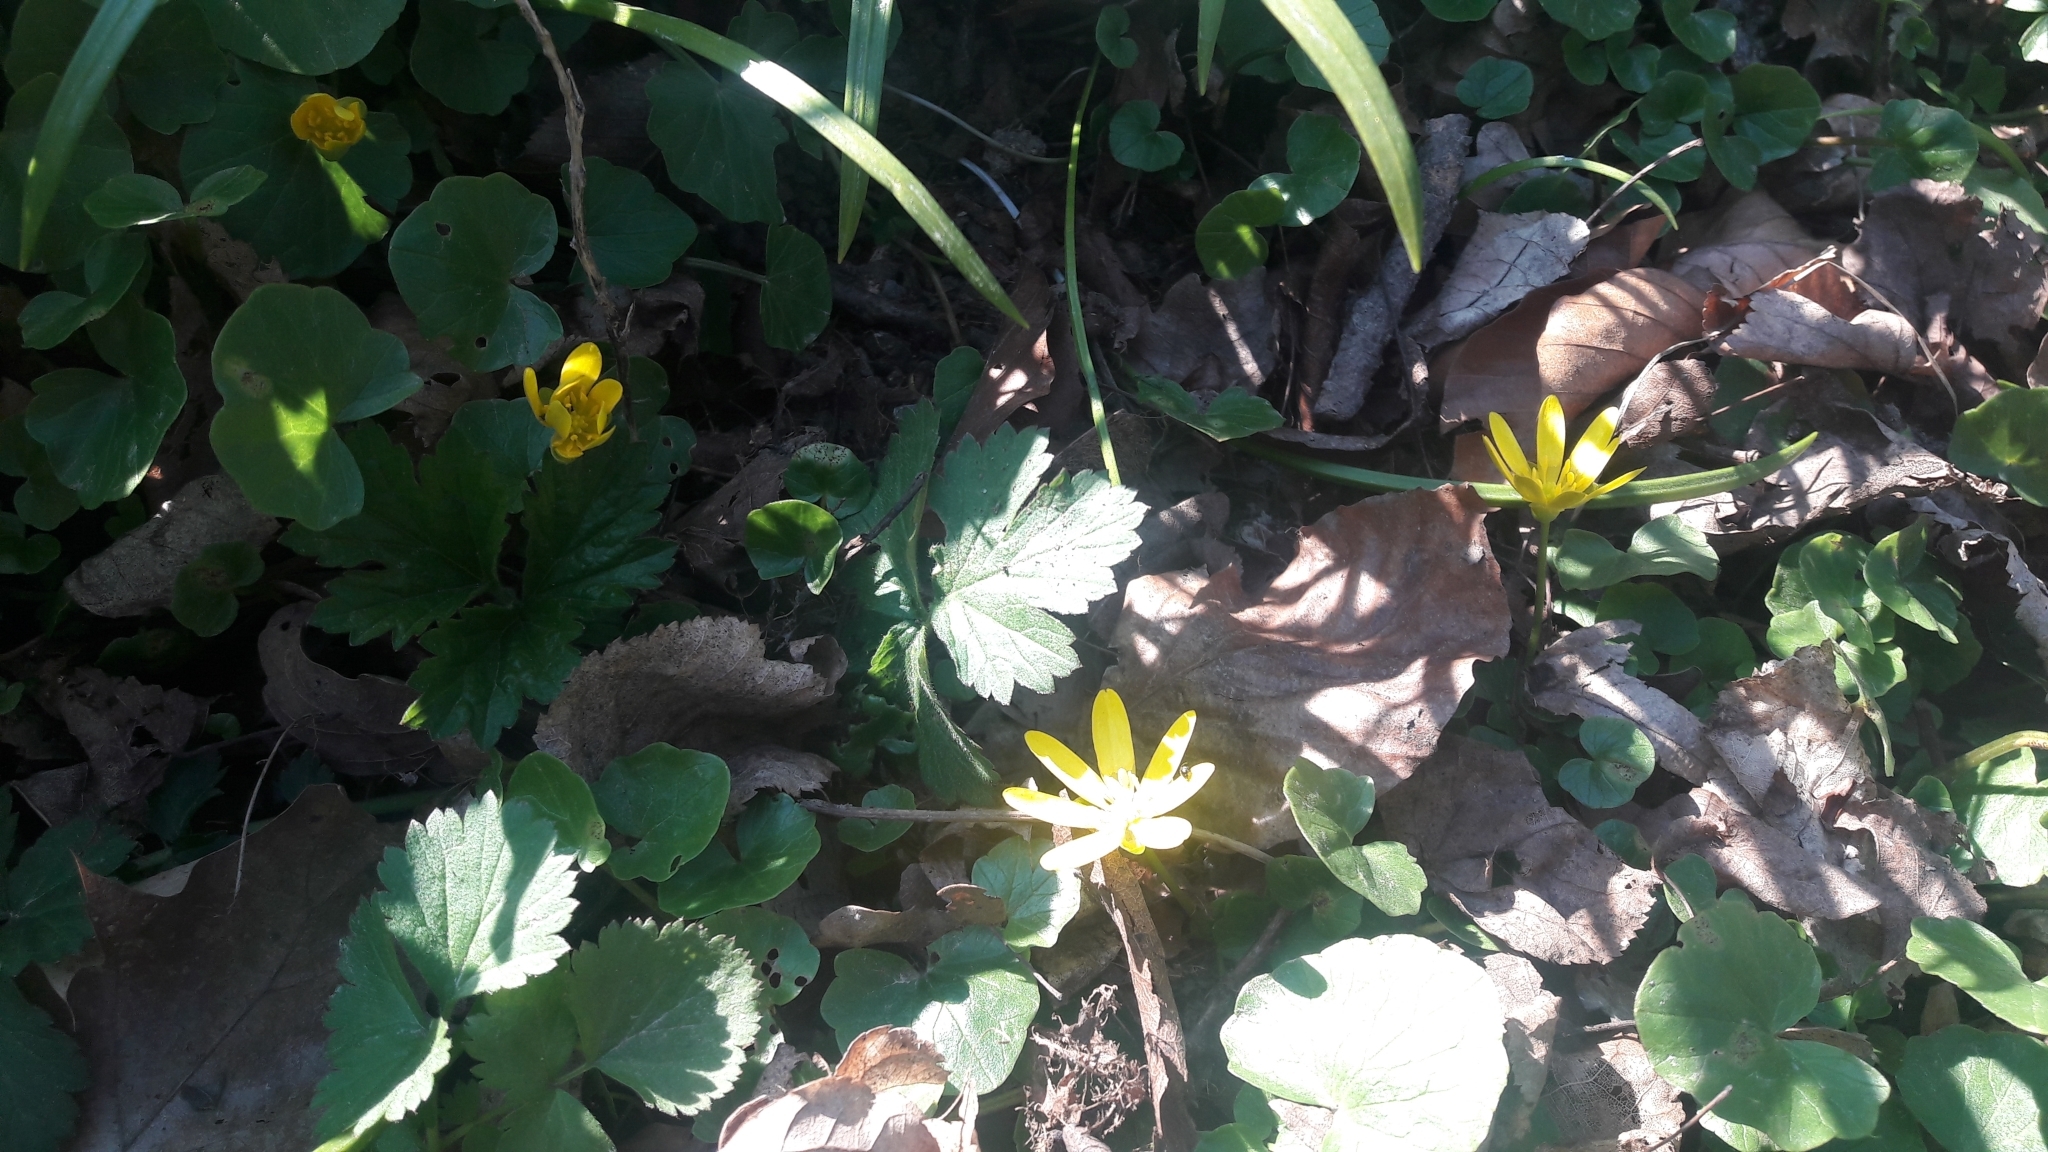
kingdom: Plantae
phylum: Tracheophyta
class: Magnoliopsida
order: Ranunculales
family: Ranunculaceae
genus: Ficaria
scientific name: Ficaria verna
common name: Lesser celandine
